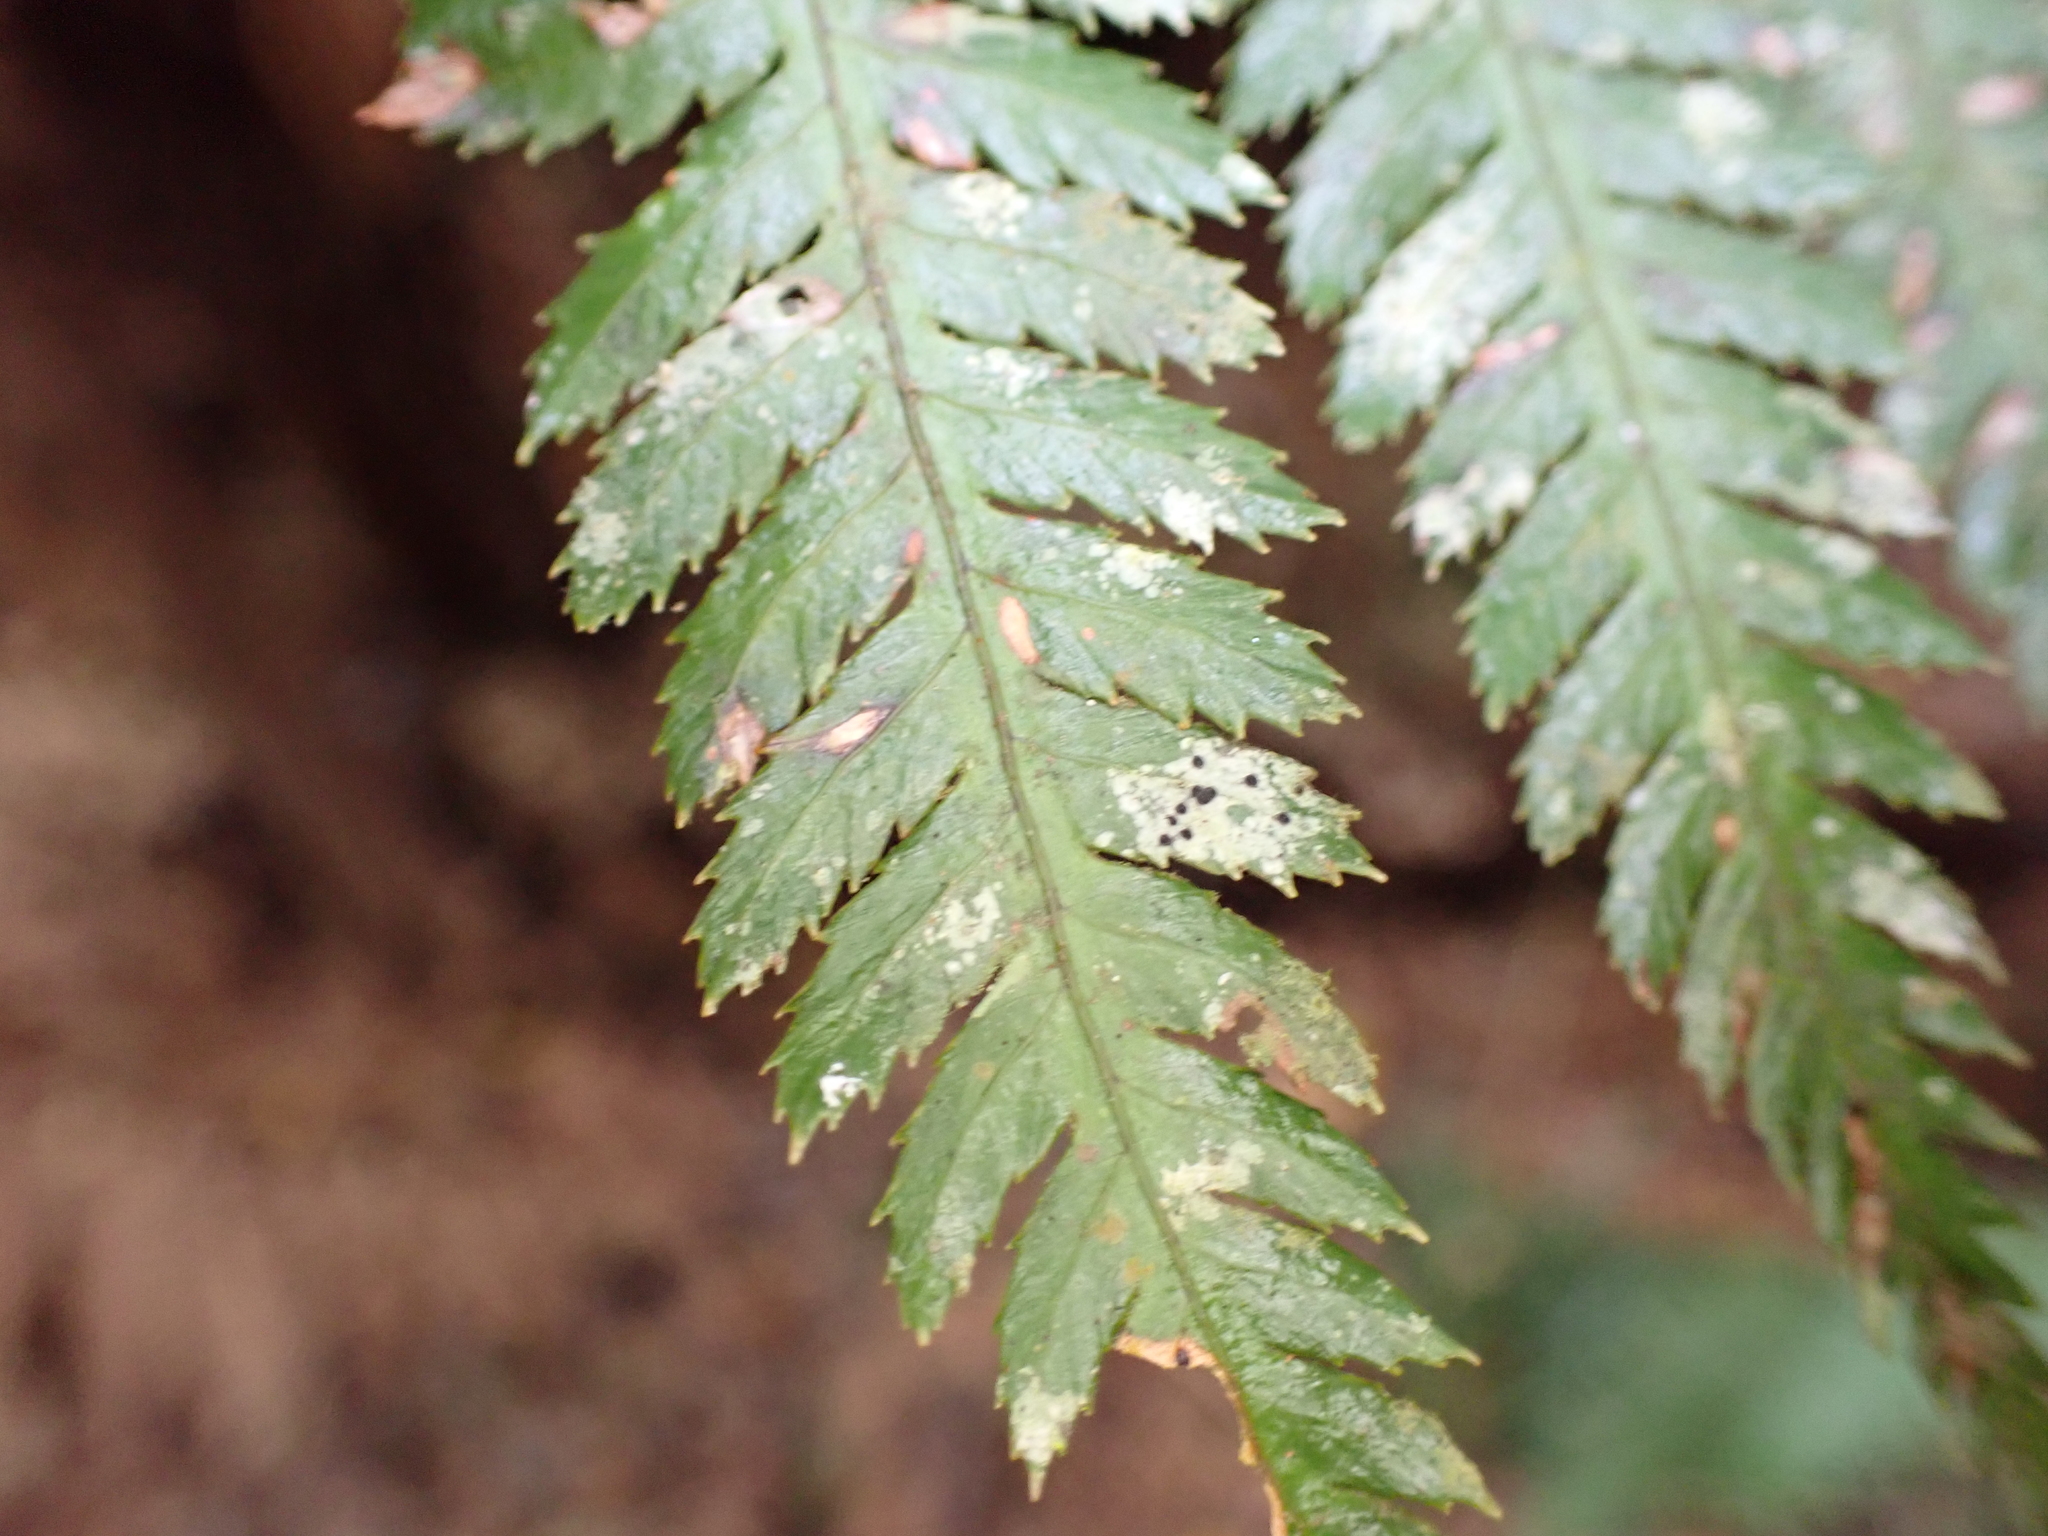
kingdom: Plantae
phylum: Tracheophyta
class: Polypodiopsida
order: Cyatheales
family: Dicksoniaceae
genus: Dicksonia
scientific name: Dicksonia squarrosa
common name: Hard treefern
